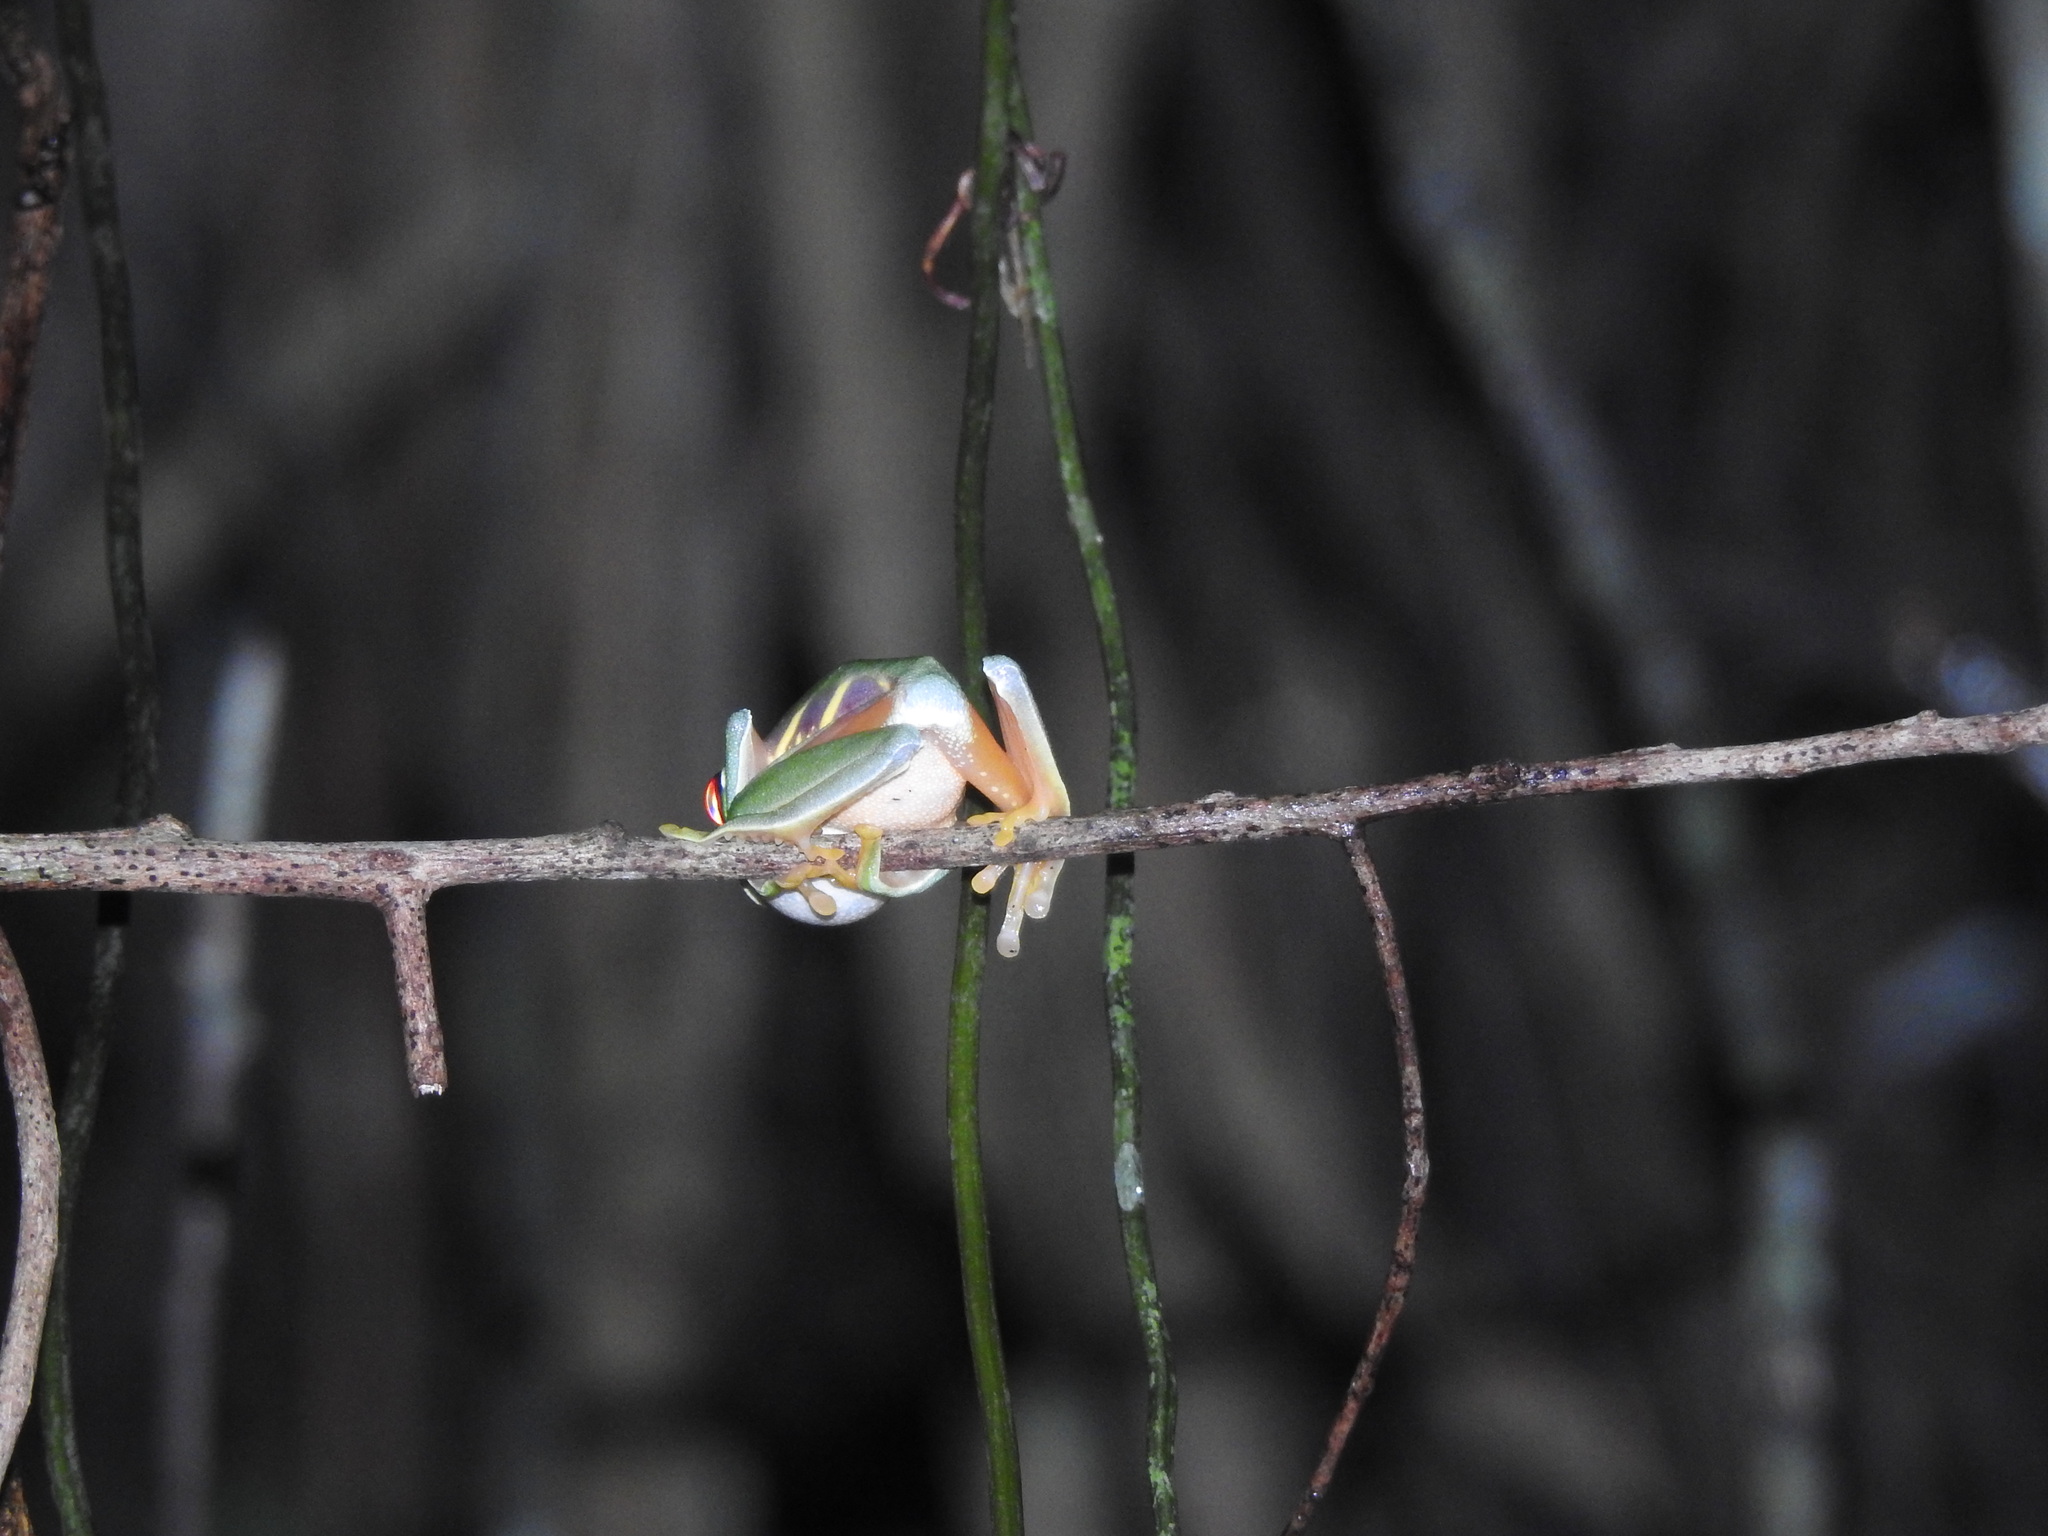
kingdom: Animalia
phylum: Chordata
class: Amphibia
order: Anura
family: Phyllomedusidae
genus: Agalychnis
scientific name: Agalychnis
